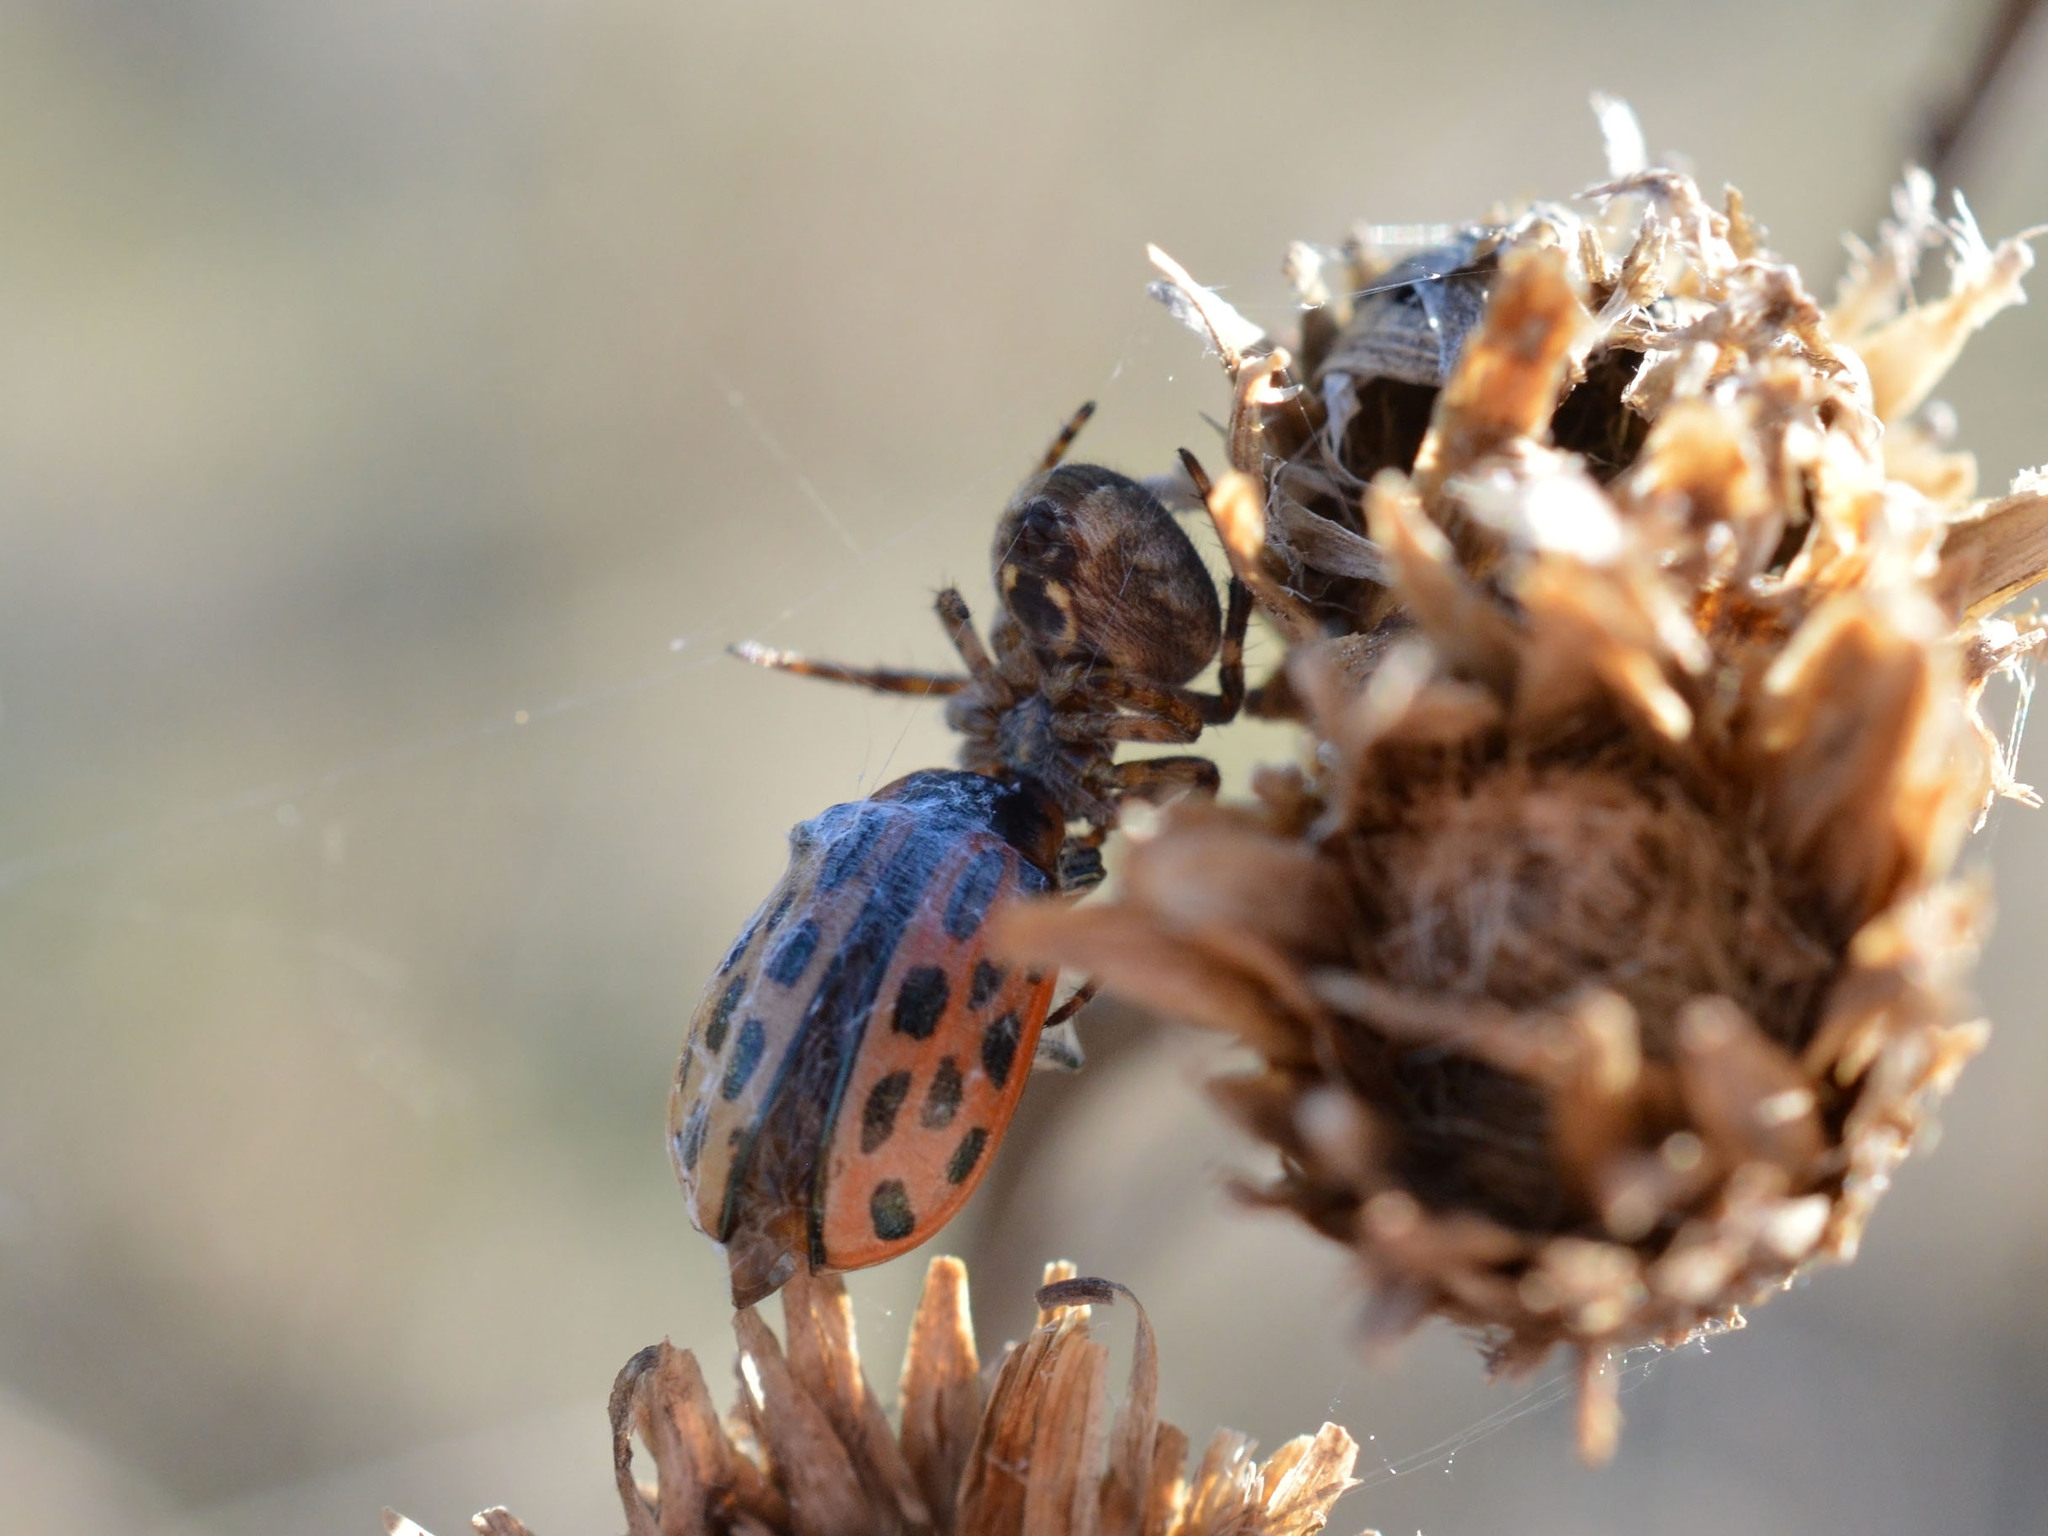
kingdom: Animalia
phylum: Arthropoda
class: Insecta
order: Coleoptera
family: Chrysomelidae
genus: Chrysomela
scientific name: Chrysomela vigintipunctata
